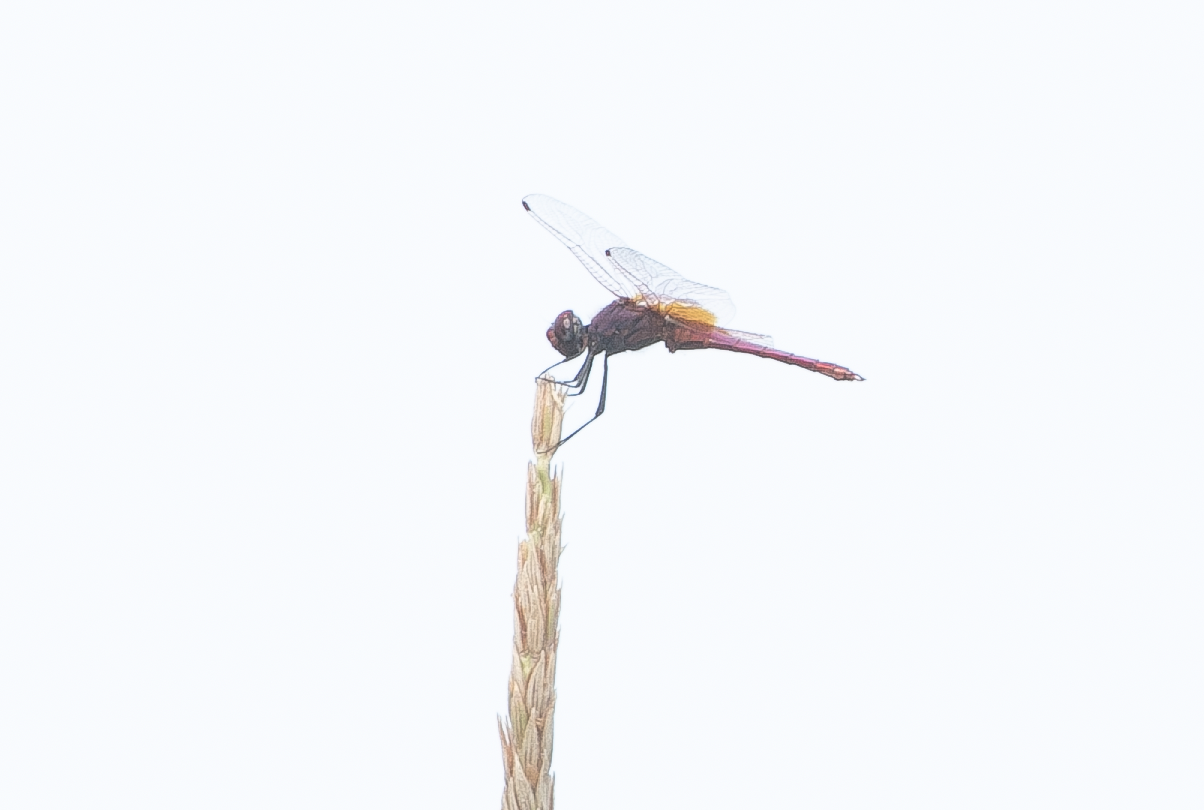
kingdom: Animalia
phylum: Arthropoda
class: Insecta
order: Odonata
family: Libellulidae
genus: Trithemis
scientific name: Trithemis annulata
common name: Violet dropwing
